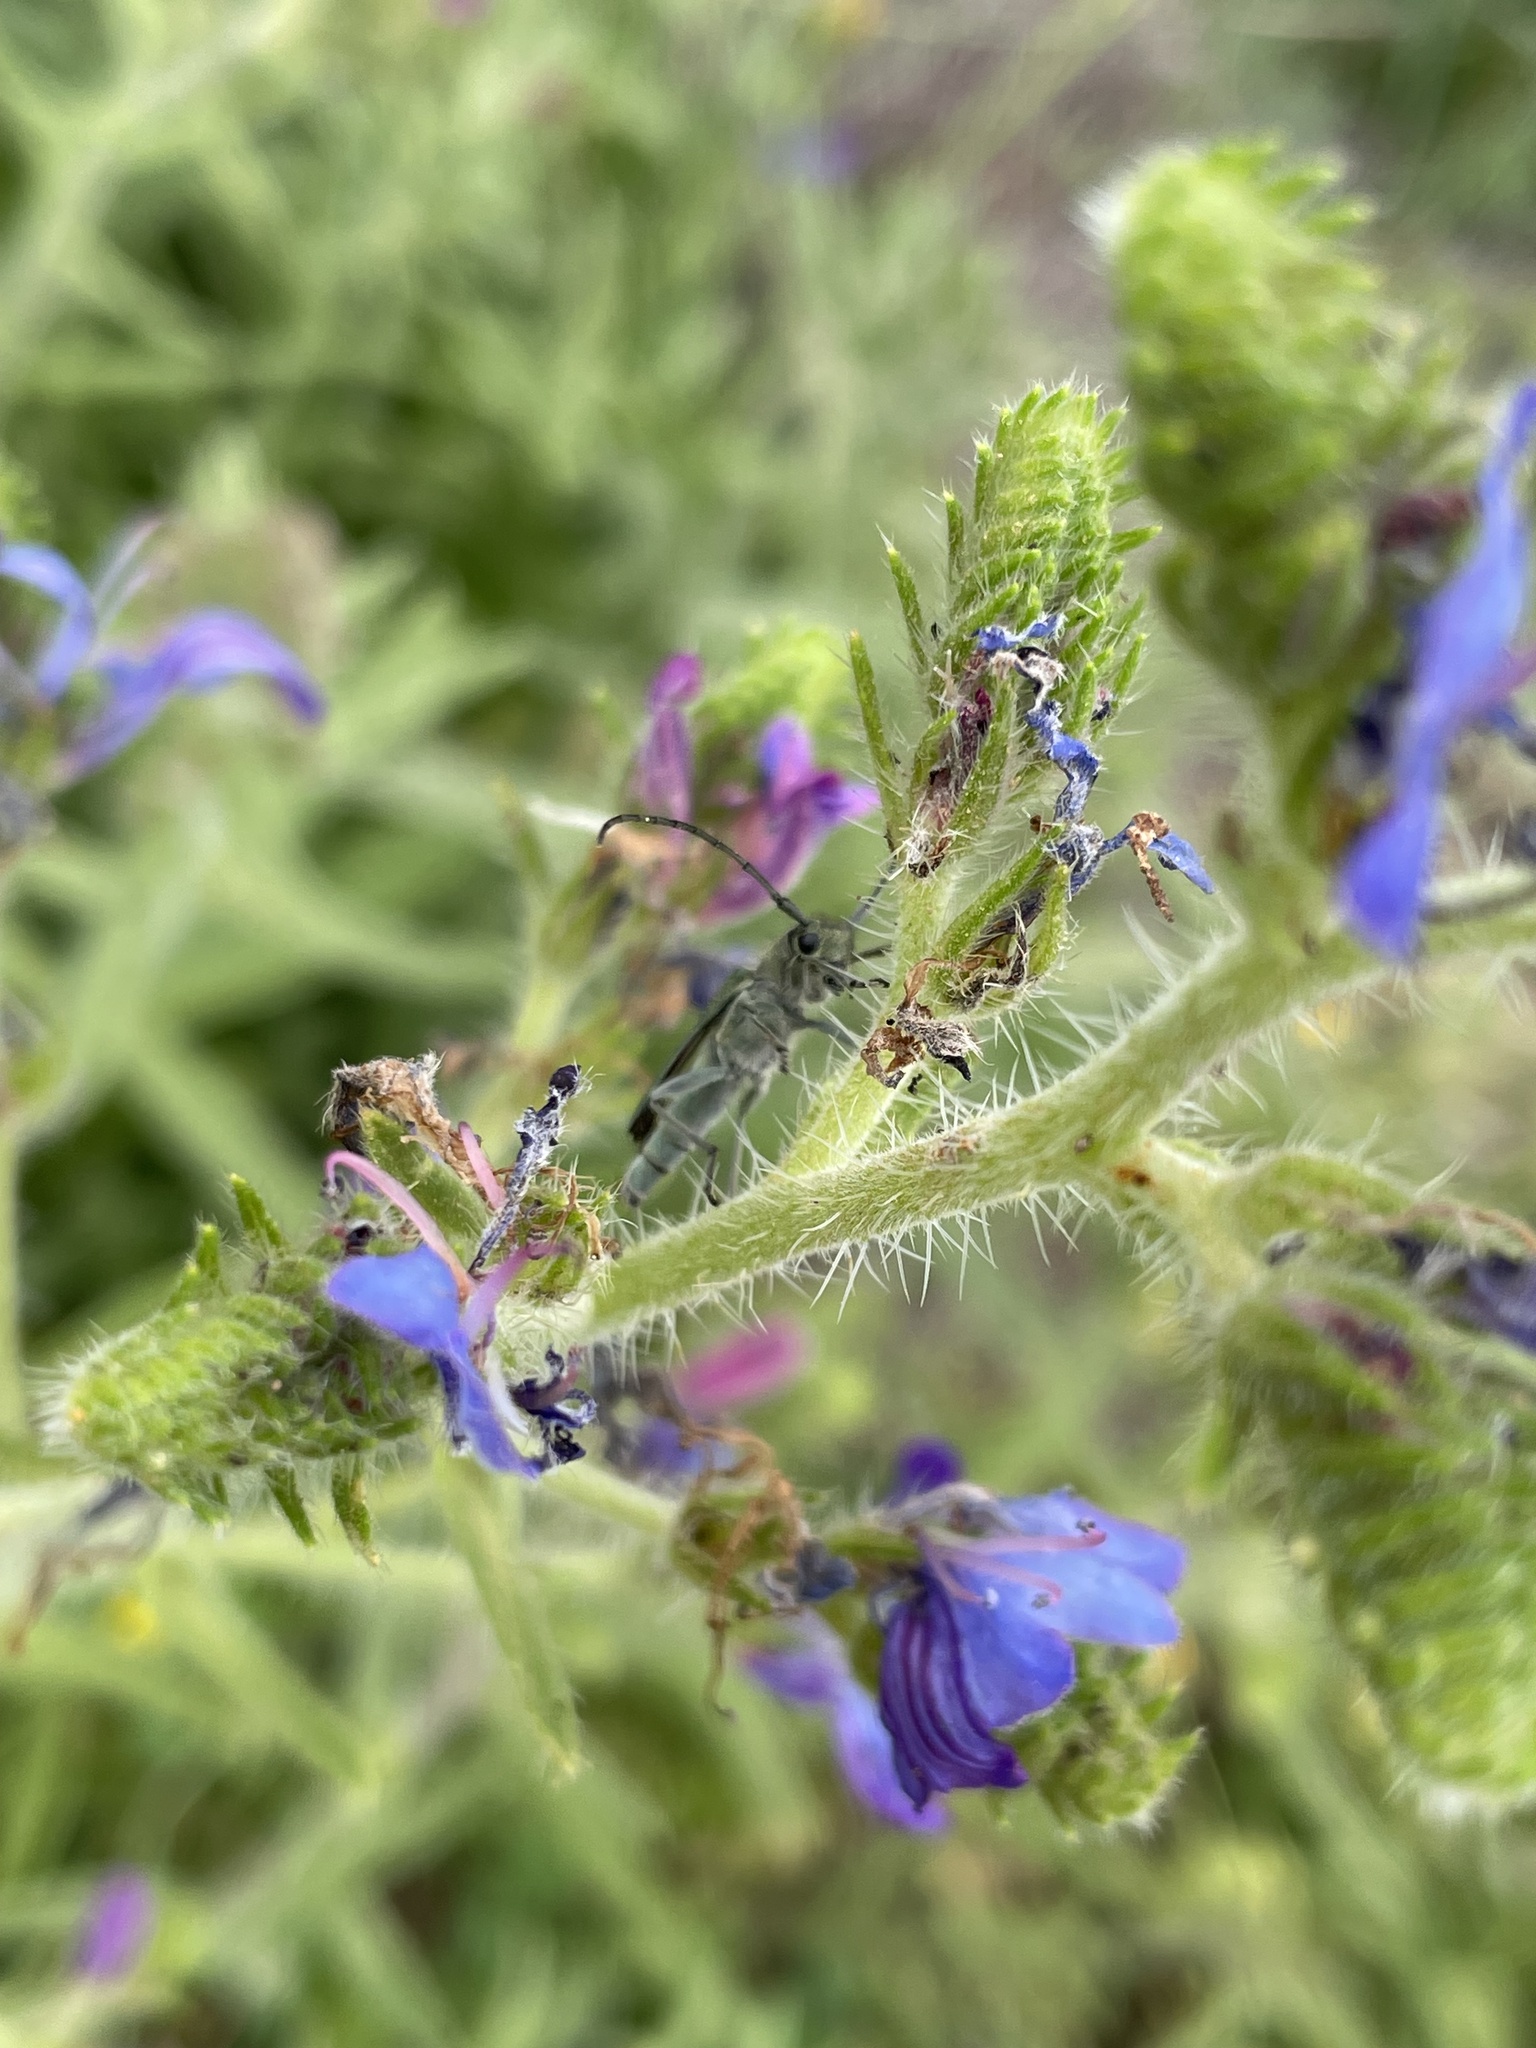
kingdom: Animalia
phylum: Arthropoda
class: Insecta
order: Coleoptera
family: Cerambycidae
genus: Phytoecia
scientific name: Phytoecia coerulescens
